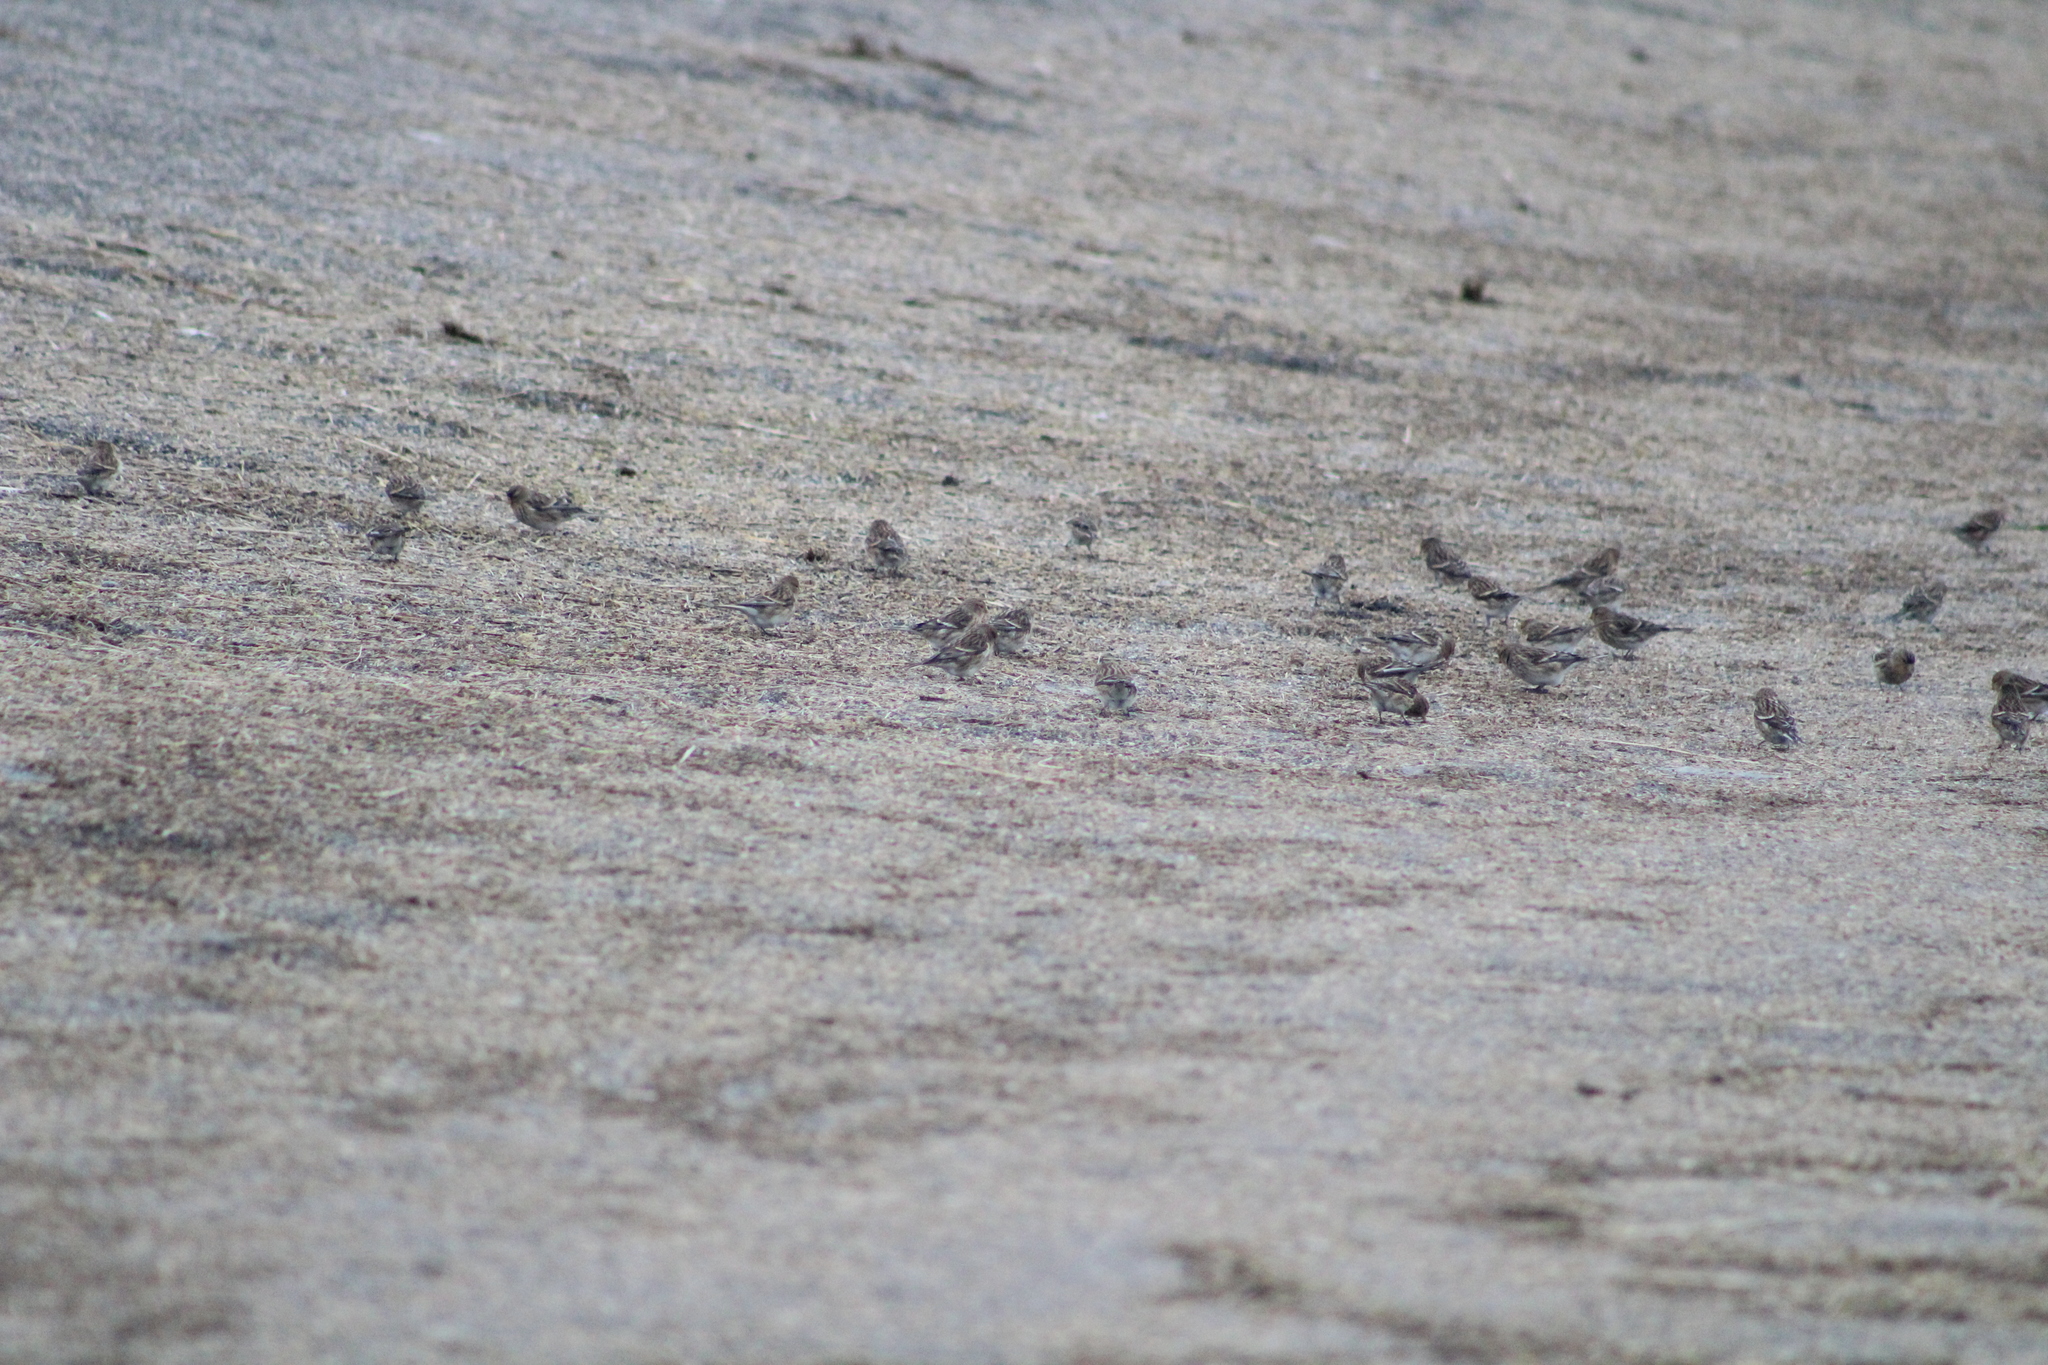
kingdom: Animalia
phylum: Chordata
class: Aves
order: Passeriformes
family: Fringillidae
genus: Acanthis
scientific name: Acanthis flammea
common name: Common redpoll
